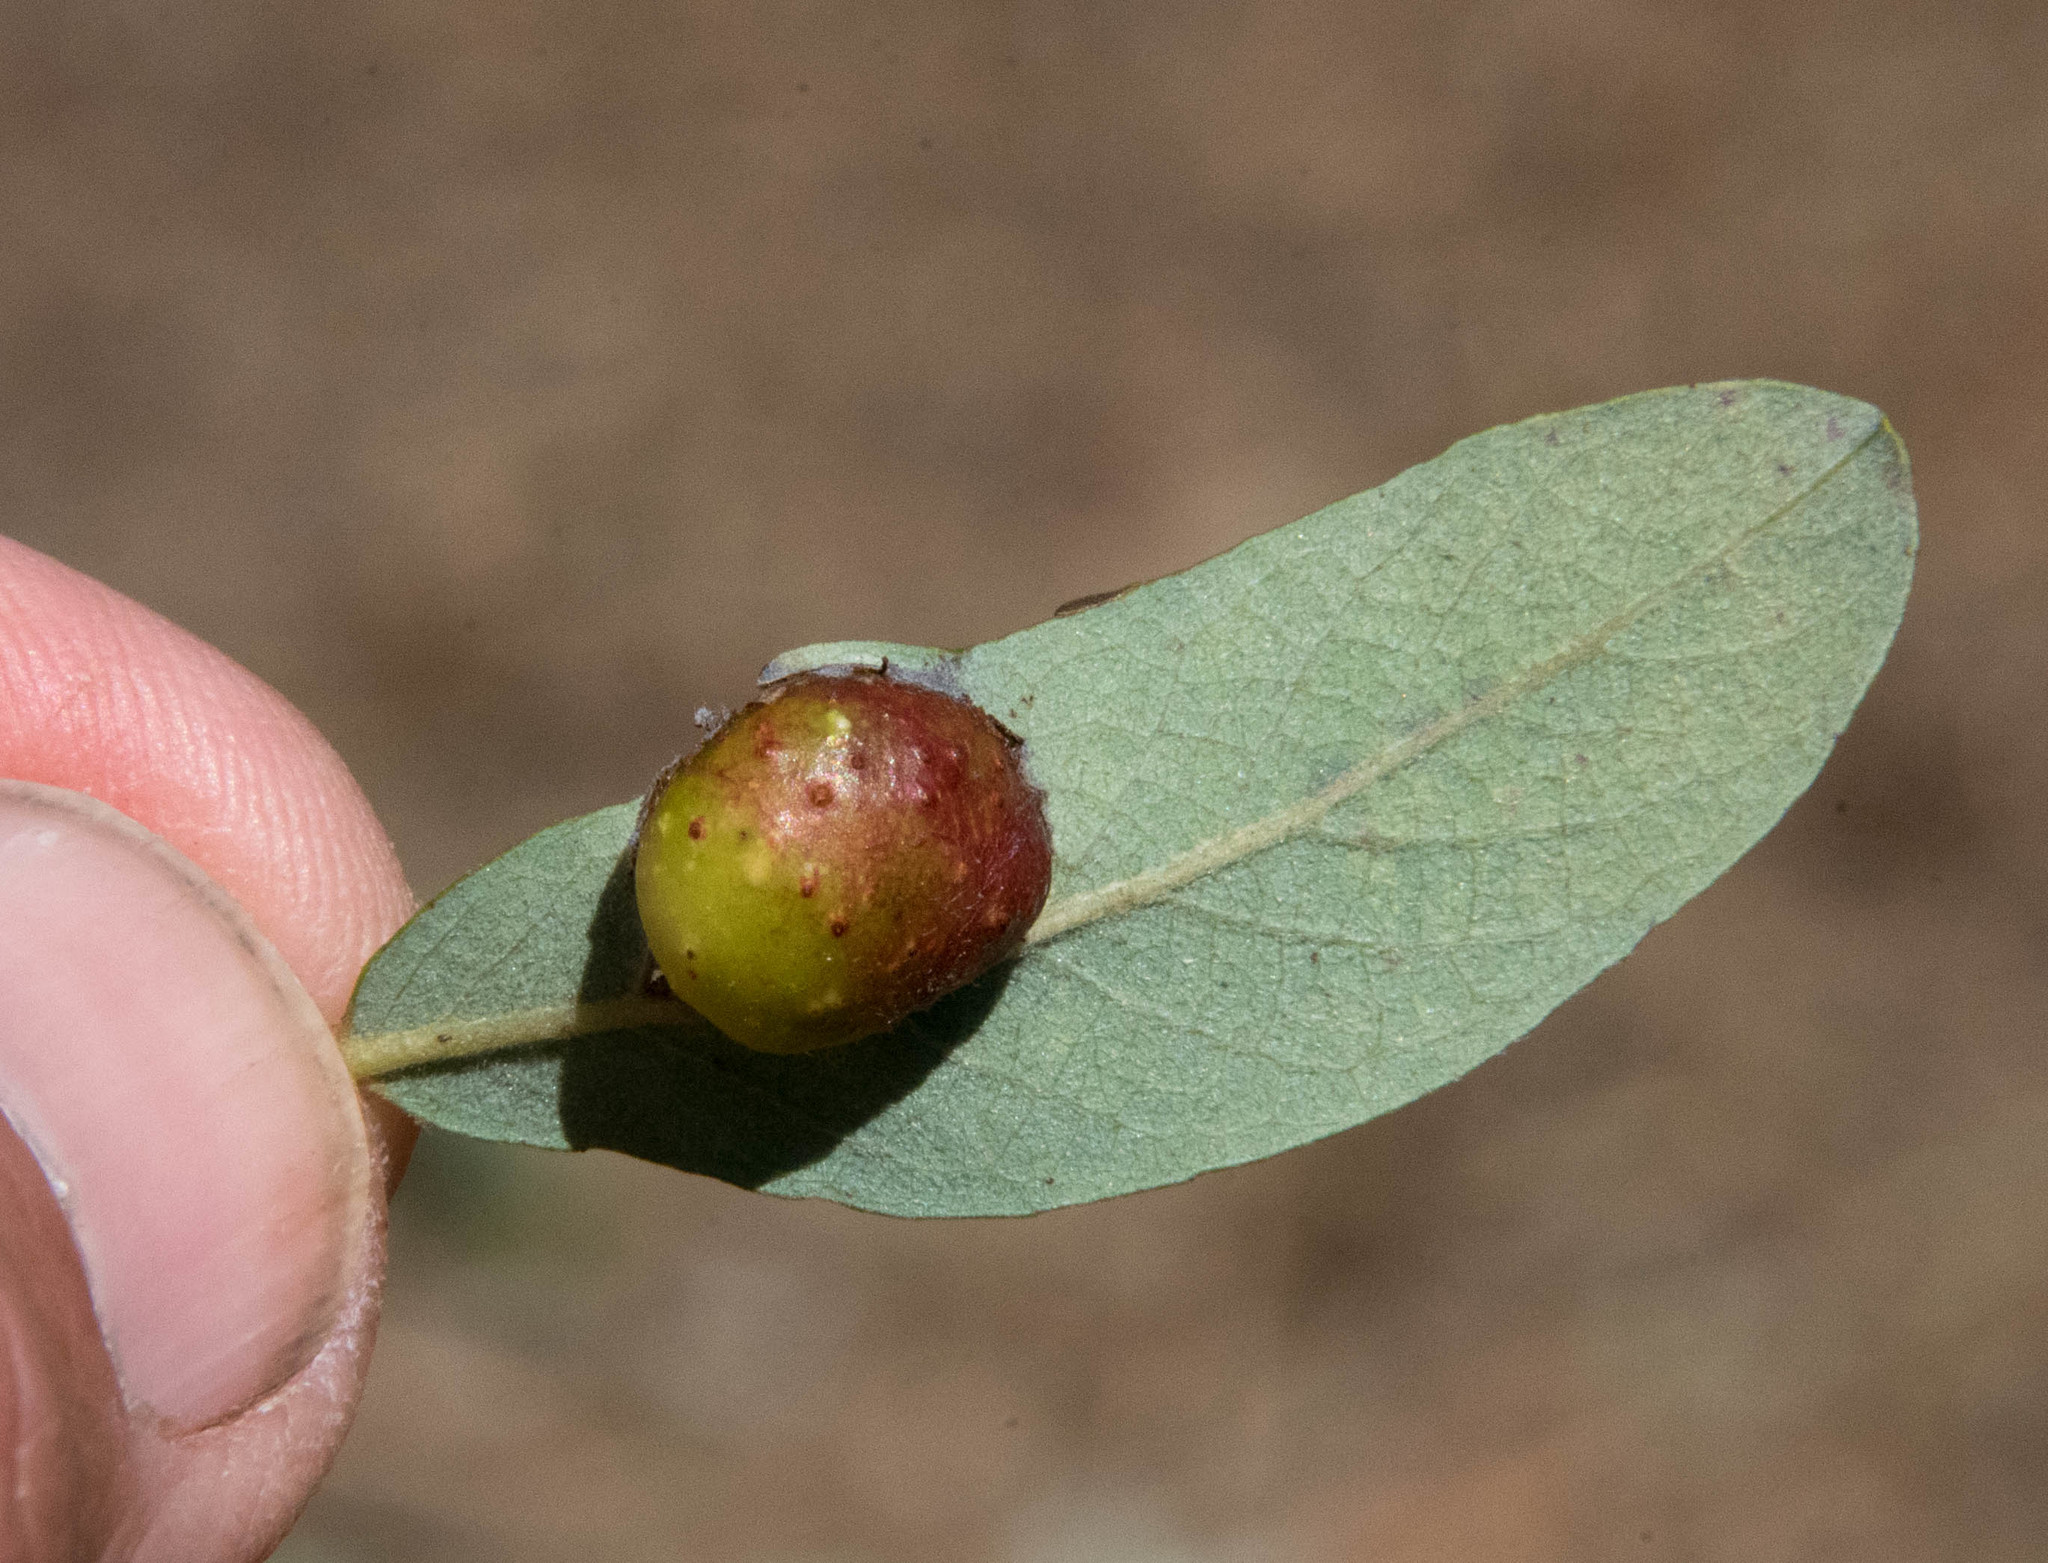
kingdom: Animalia
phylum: Arthropoda
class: Insecta
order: Hymenoptera
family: Tenthredinidae
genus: Euura
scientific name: Euura
